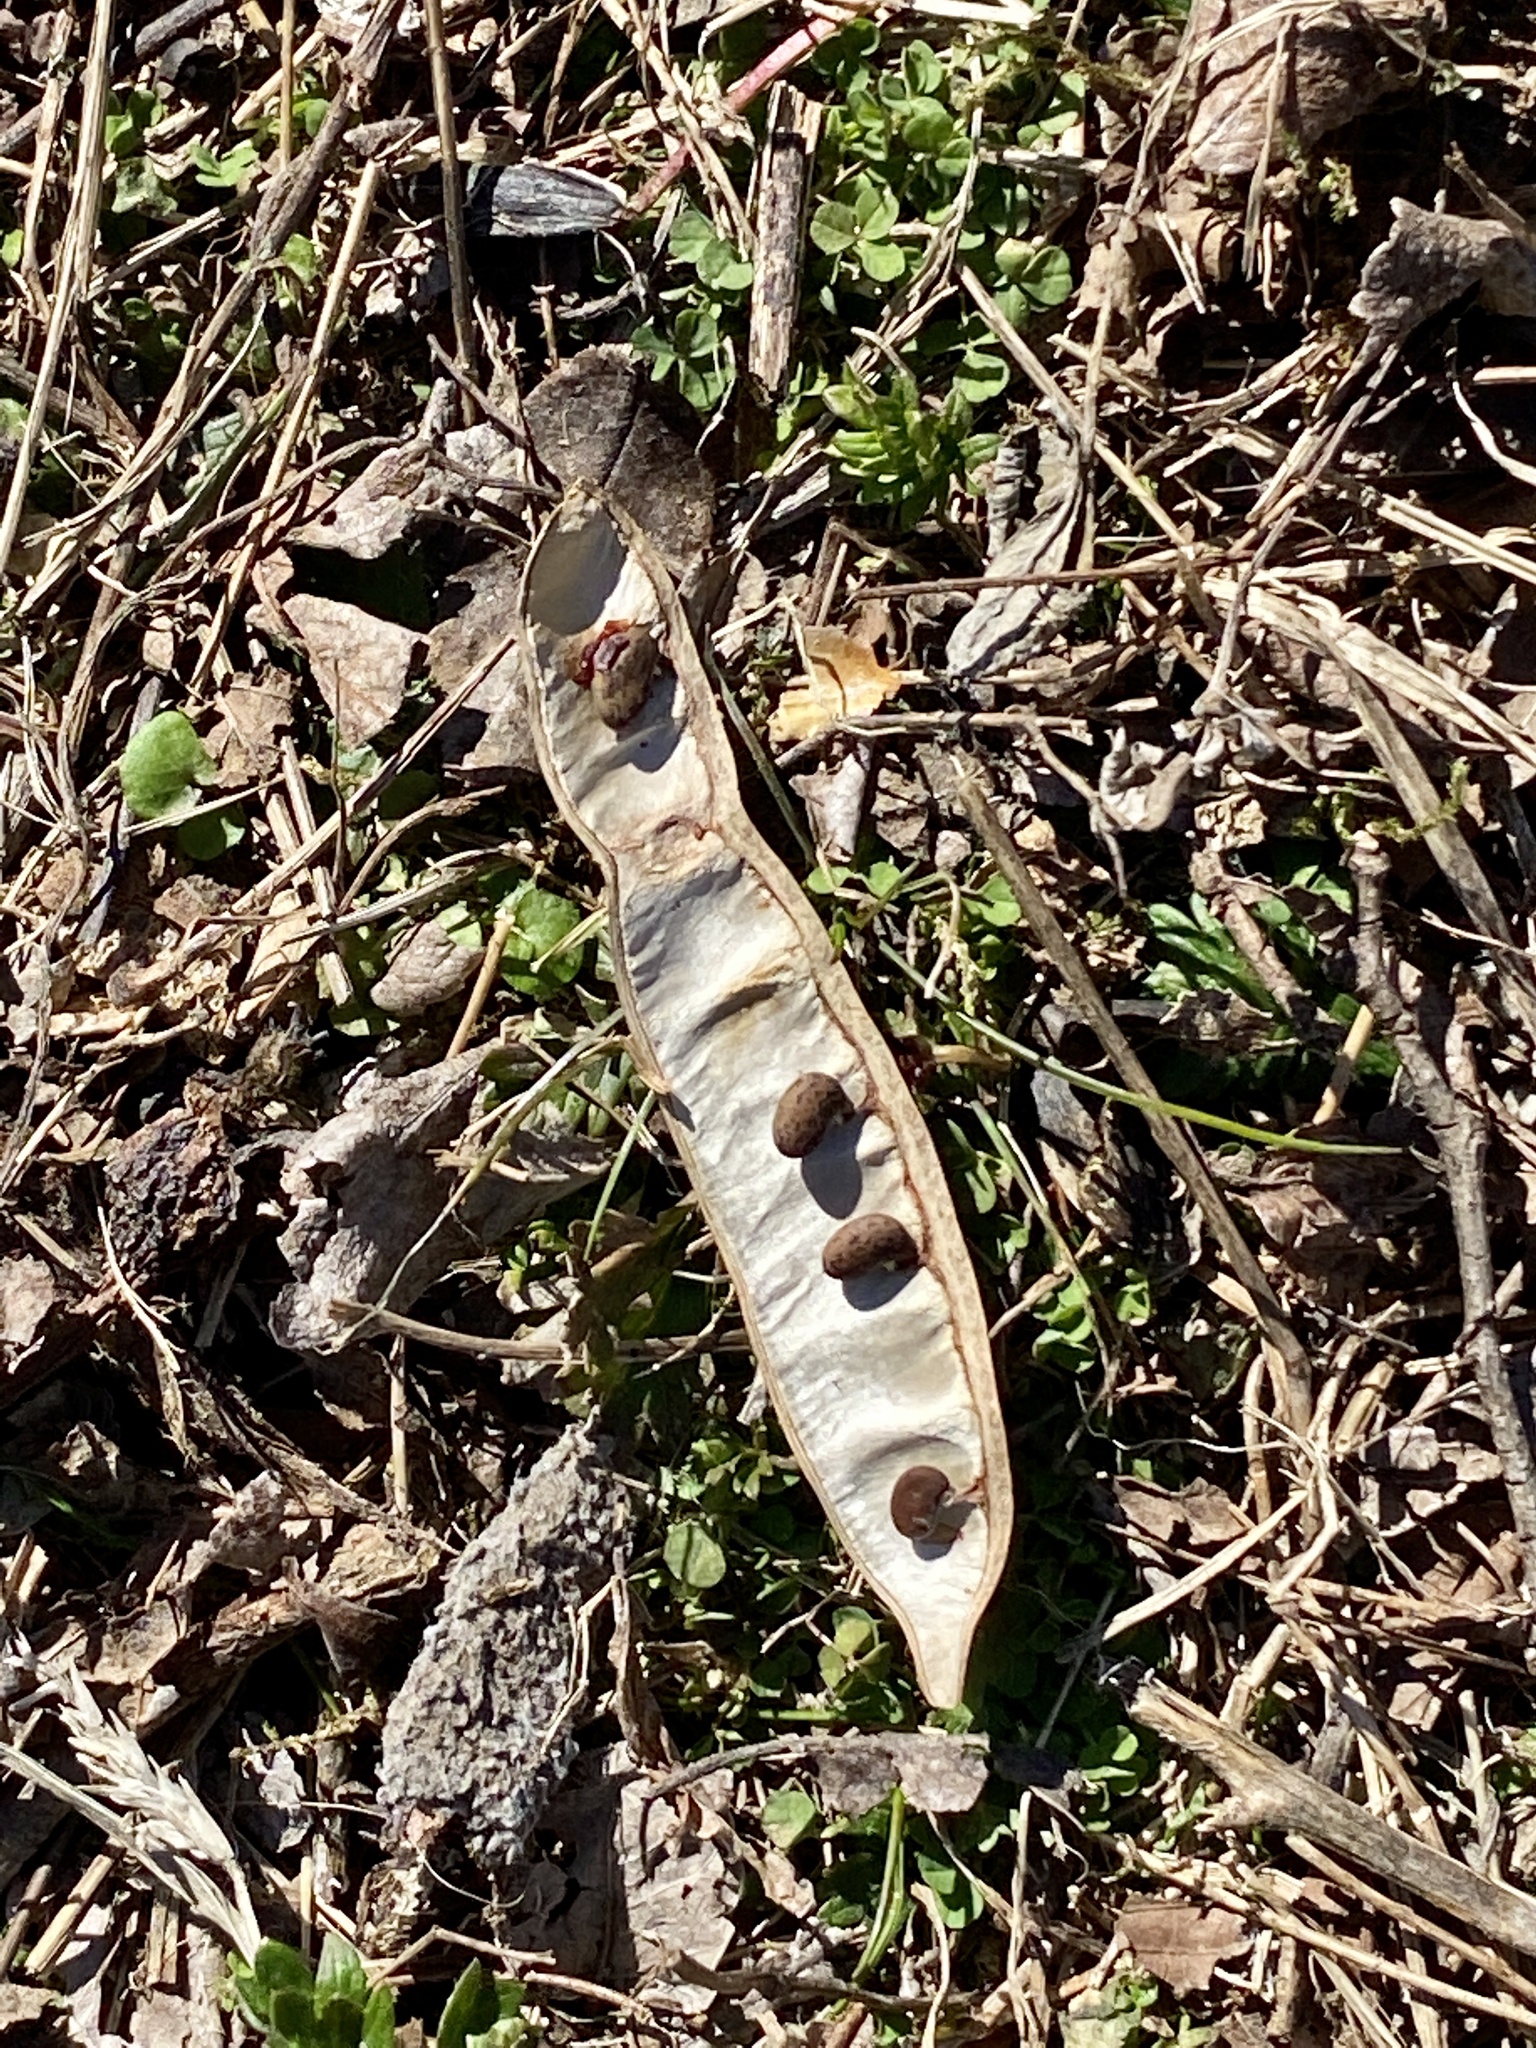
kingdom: Plantae
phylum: Tracheophyta
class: Magnoliopsida
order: Fabales
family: Fabaceae
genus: Robinia
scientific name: Robinia pseudoacacia
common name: Black locust
